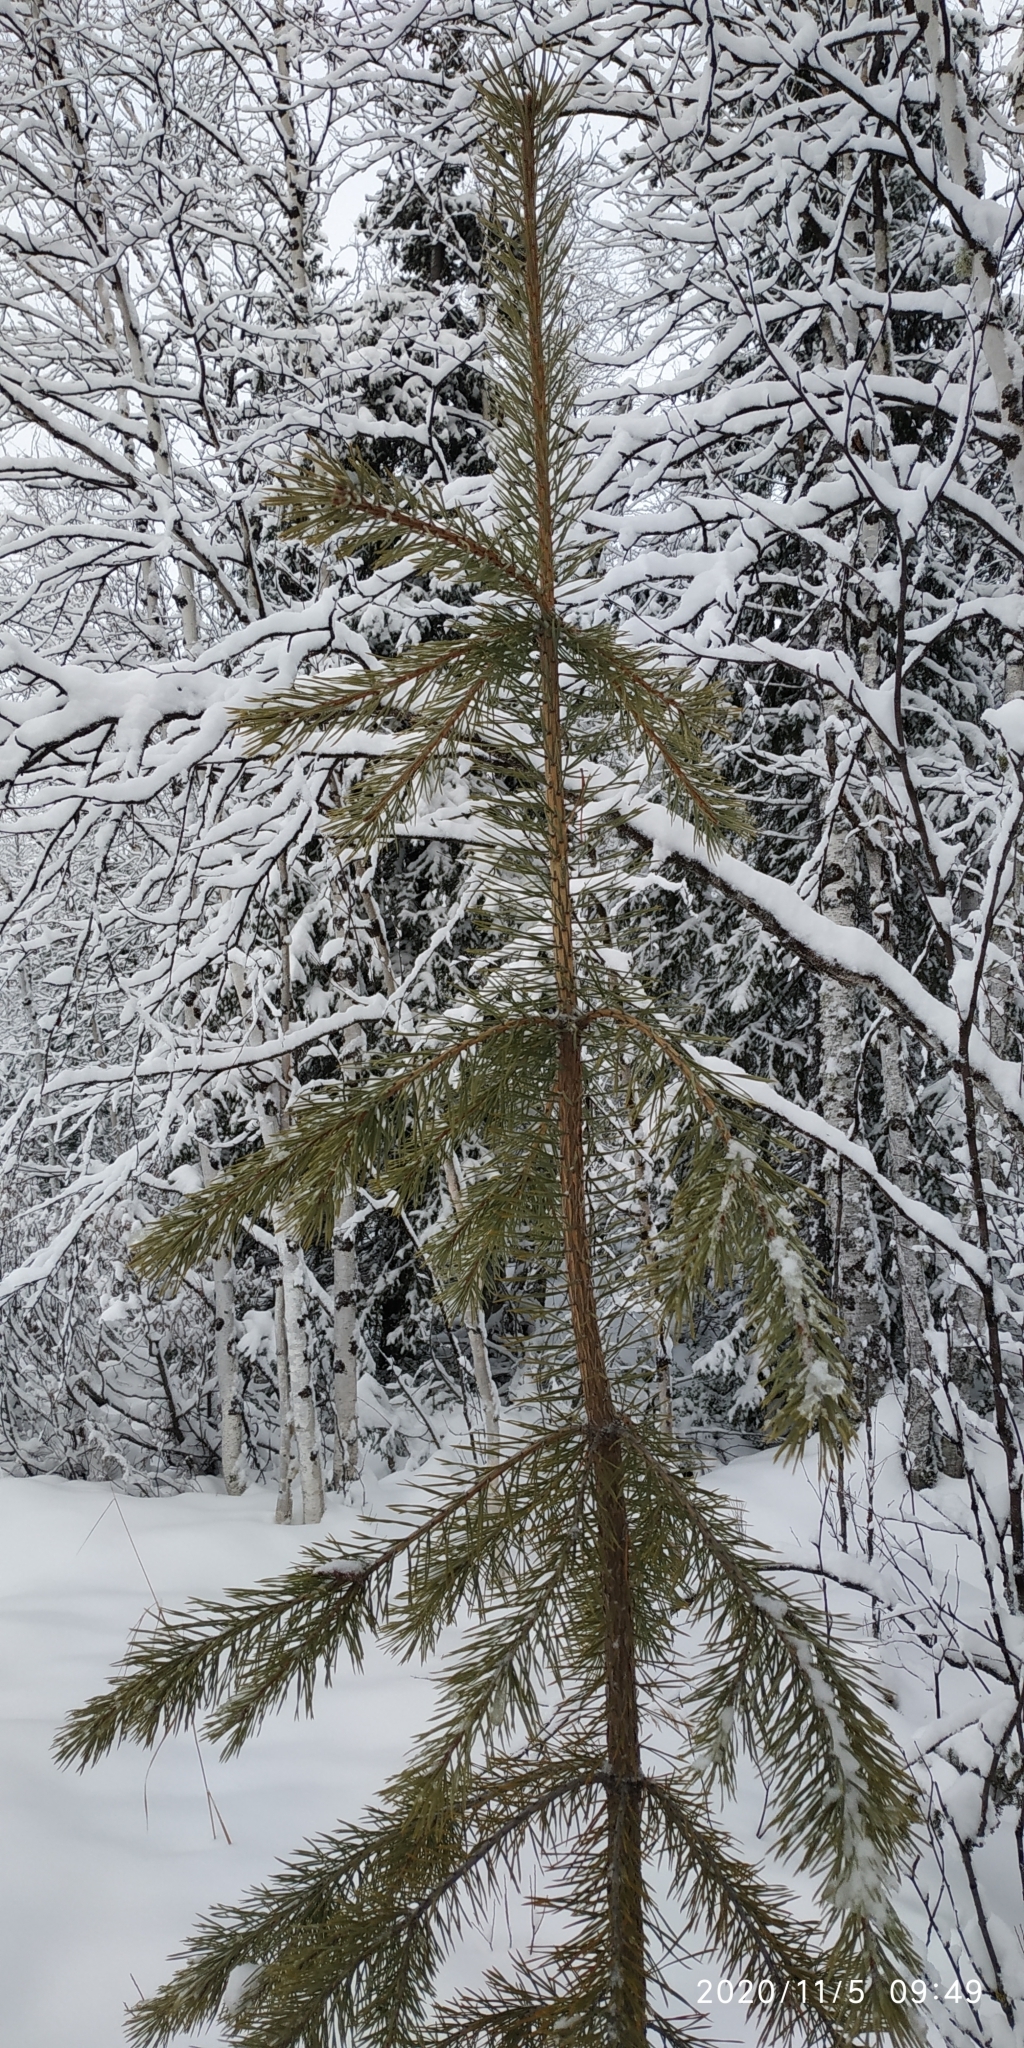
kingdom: Plantae
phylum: Tracheophyta
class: Pinopsida
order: Pinales
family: Pinaceae
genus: Pinus
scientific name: Pinus sylvestris
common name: Scots pine
